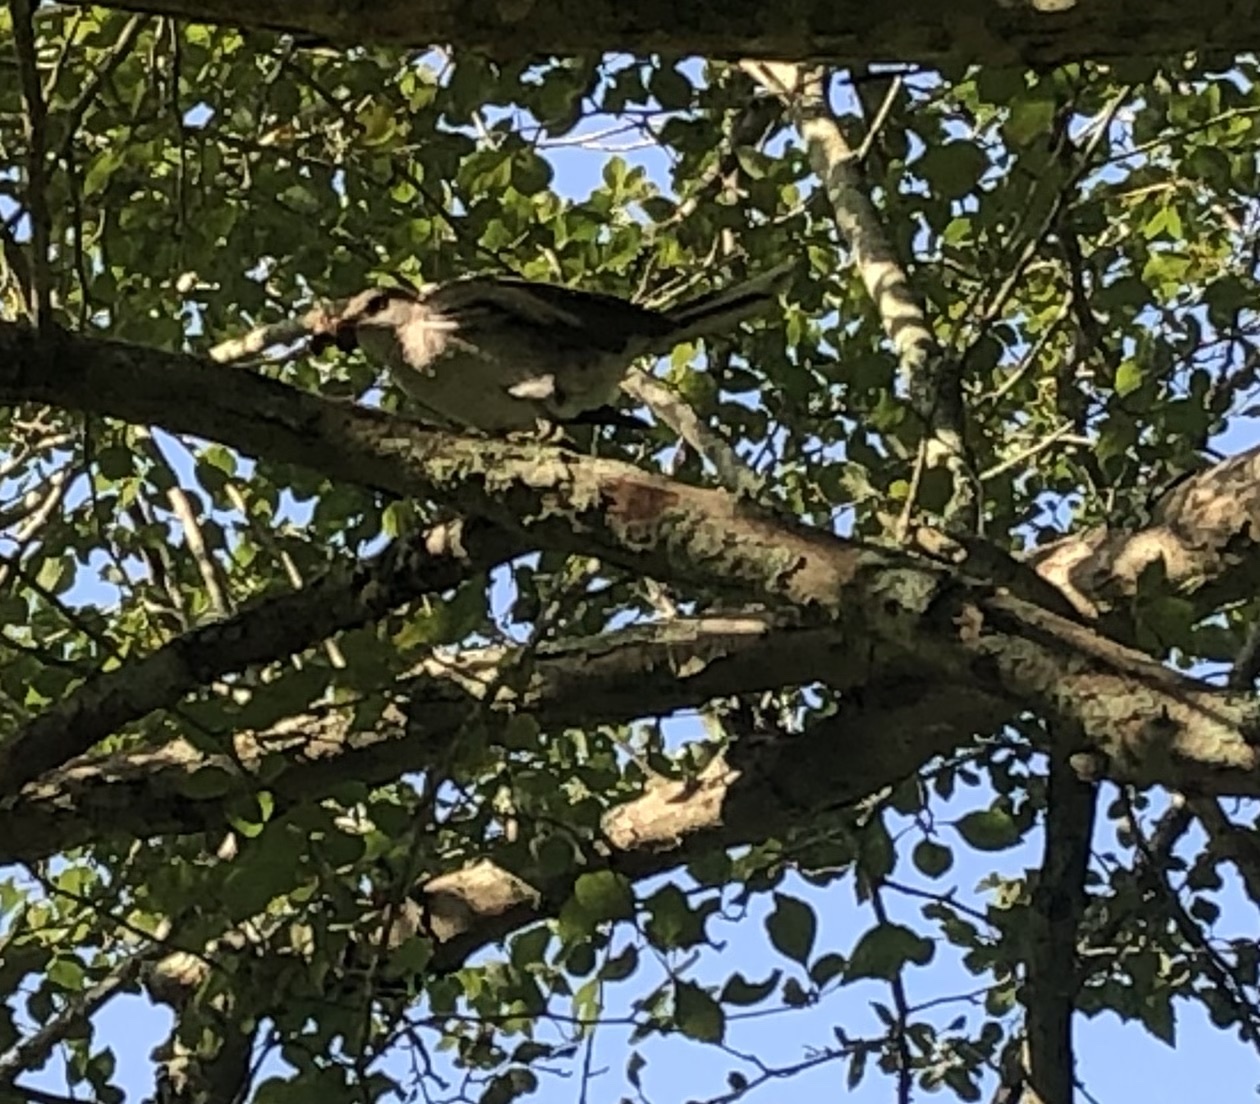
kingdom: Animalia
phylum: Chordata
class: Aves
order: Passeriformes
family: Mimidae
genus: Mimus
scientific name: Mimus polyglottos
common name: Northern mockingbird
